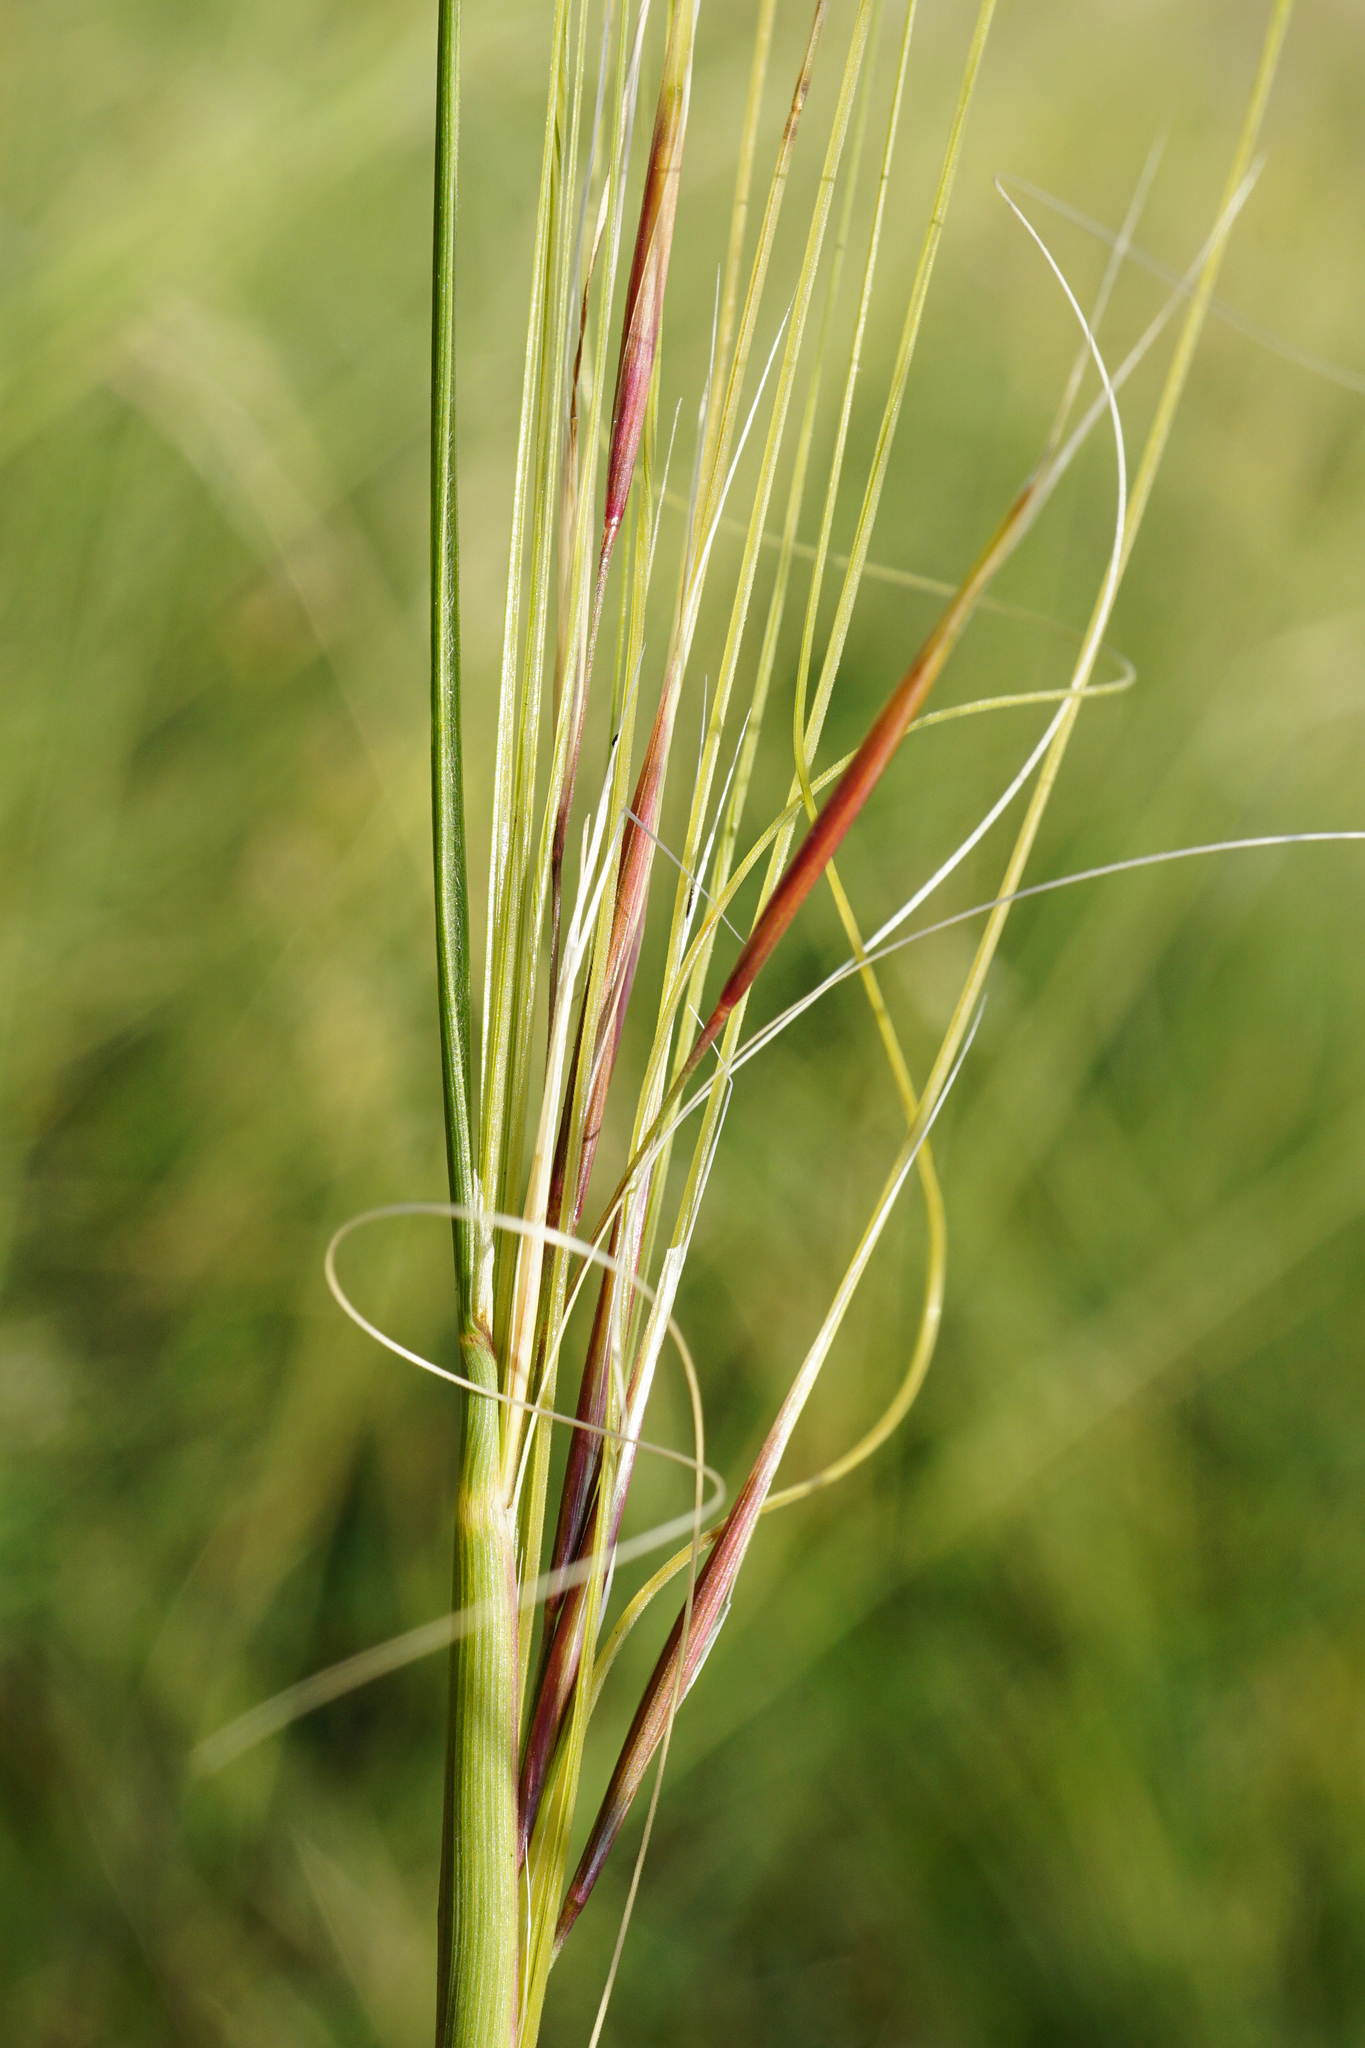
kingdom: Plantae
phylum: Tracheophyta
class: Liliopsida
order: Poales
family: Poaceae
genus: Stipa
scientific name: Stipa capillata
